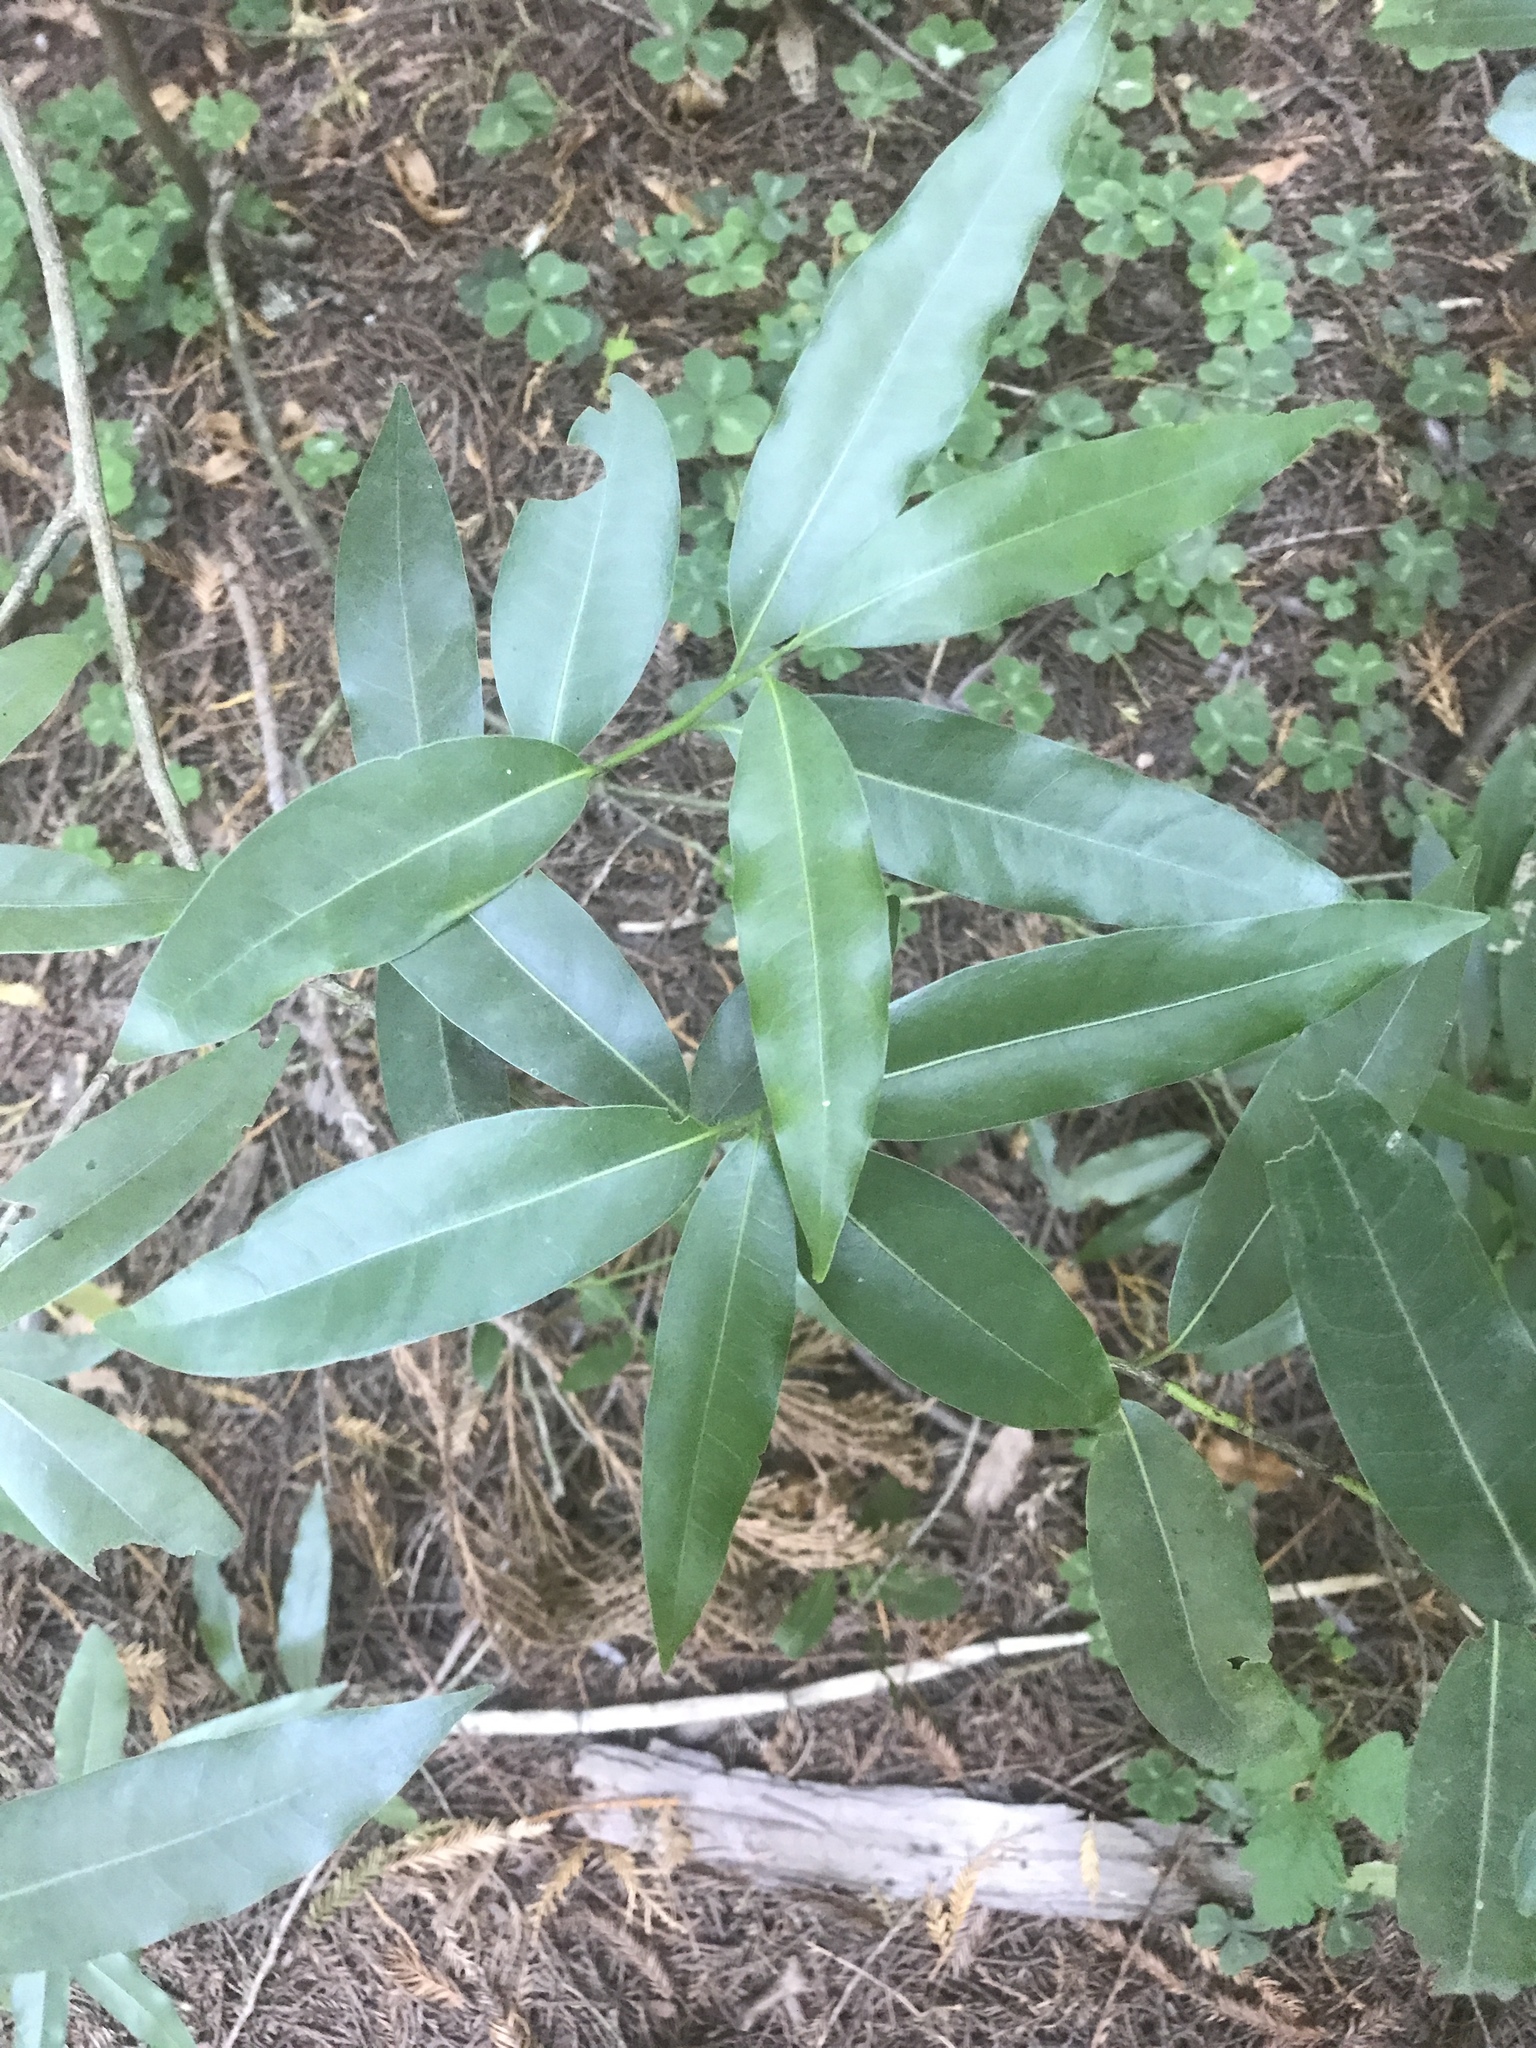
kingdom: Plantae
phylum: Tracheophyta
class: Magnoliopsida
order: Laurales
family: Lauraceae
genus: Umbellularia
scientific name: Umbellularia californica
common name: California bay
